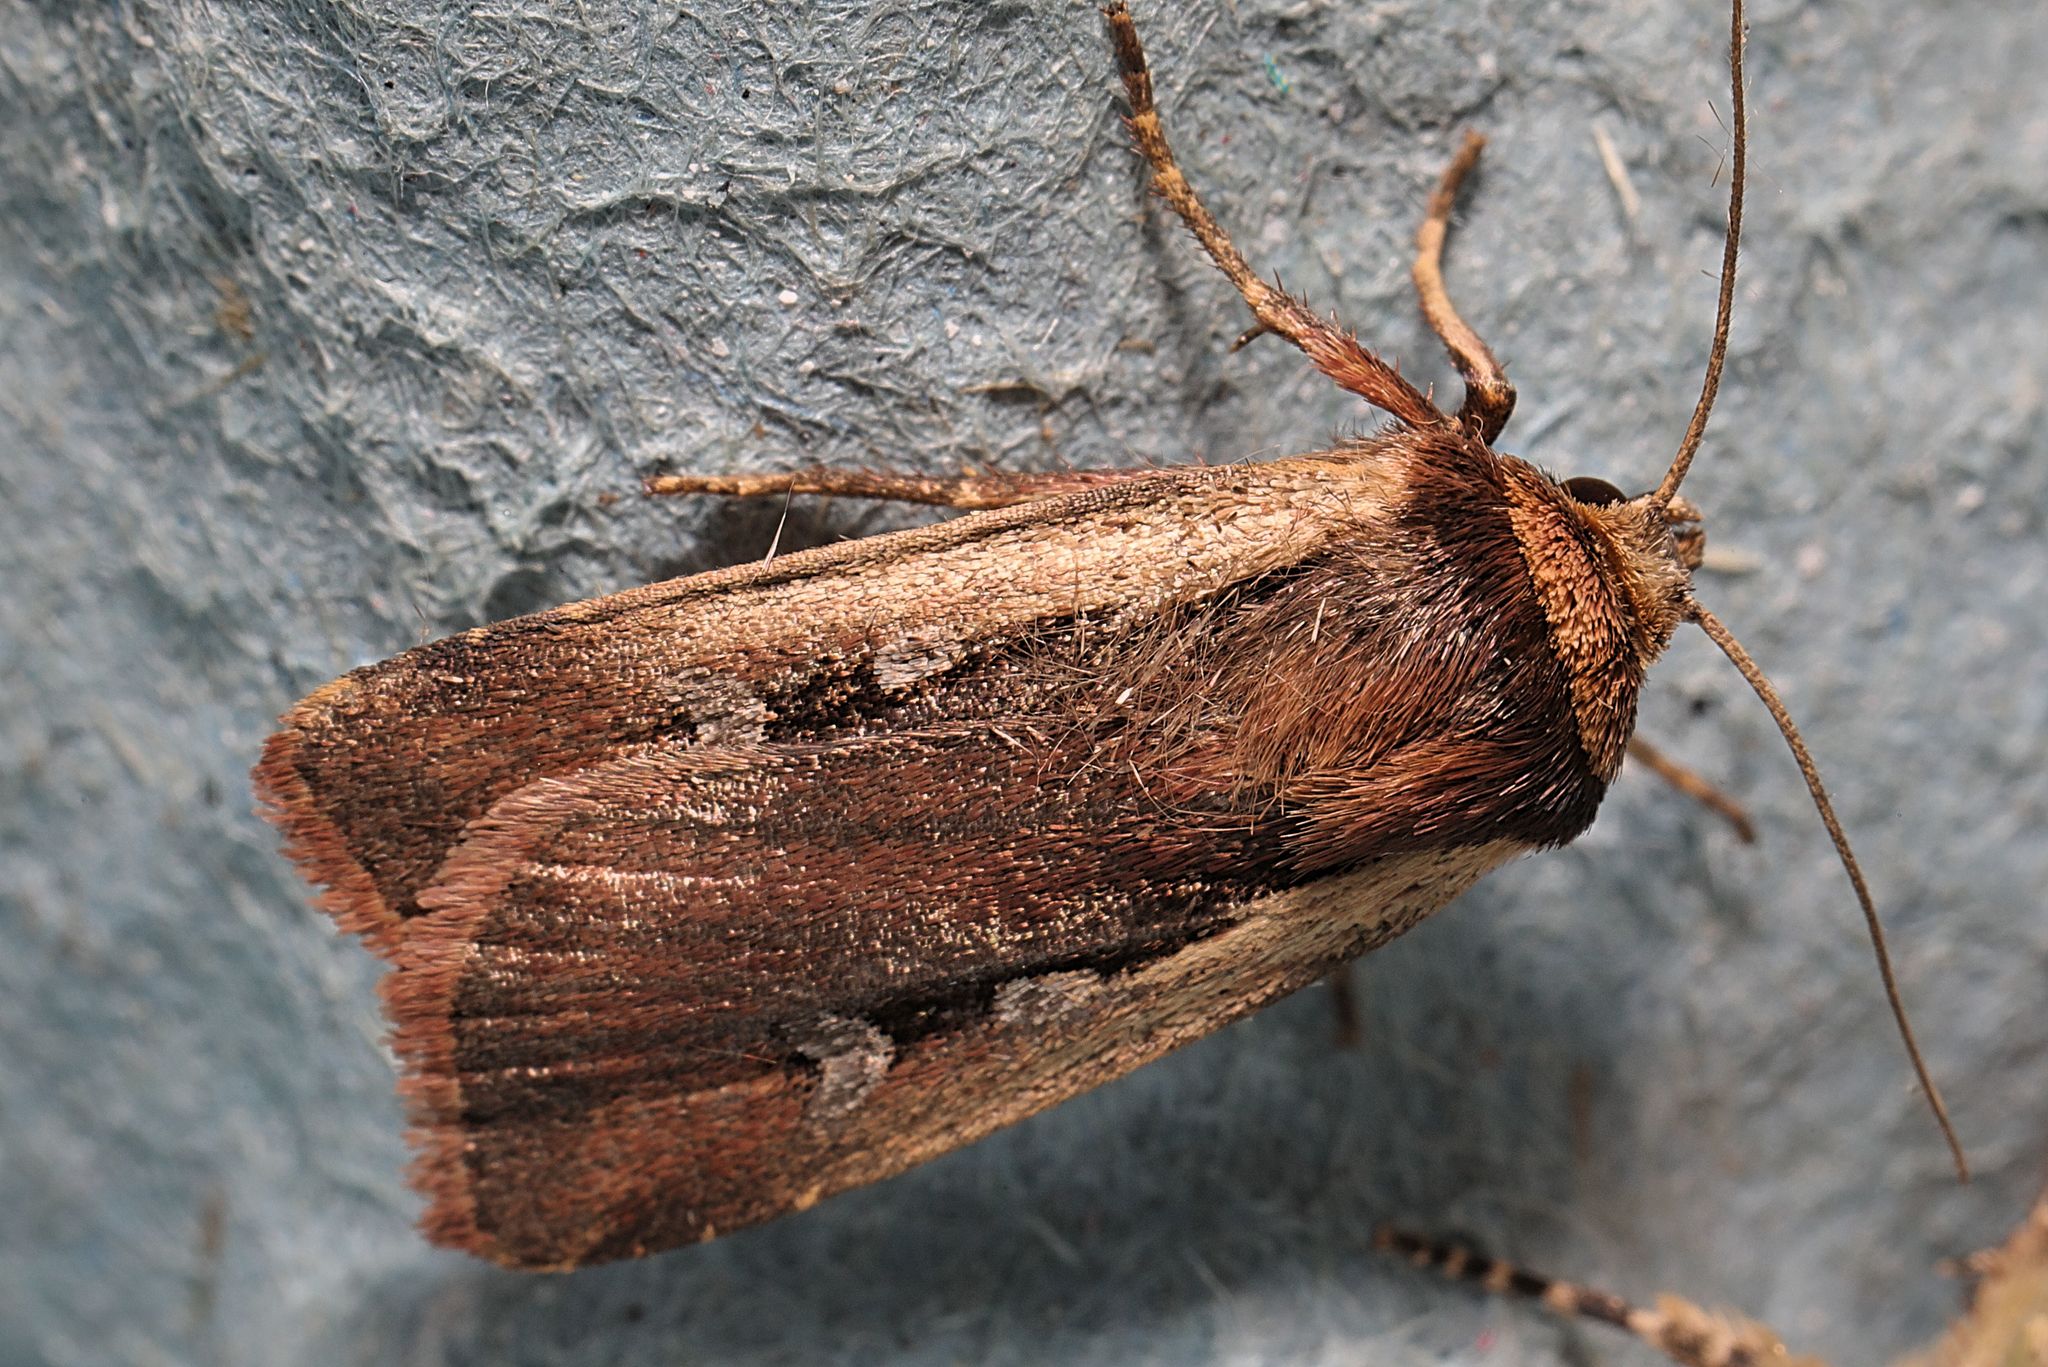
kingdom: Animalia
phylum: Arthropoda
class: Insecta
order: Lepidoptera
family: Noctuidae
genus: Ochropleura
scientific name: Ochropleura plecta
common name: Flame shoulder
